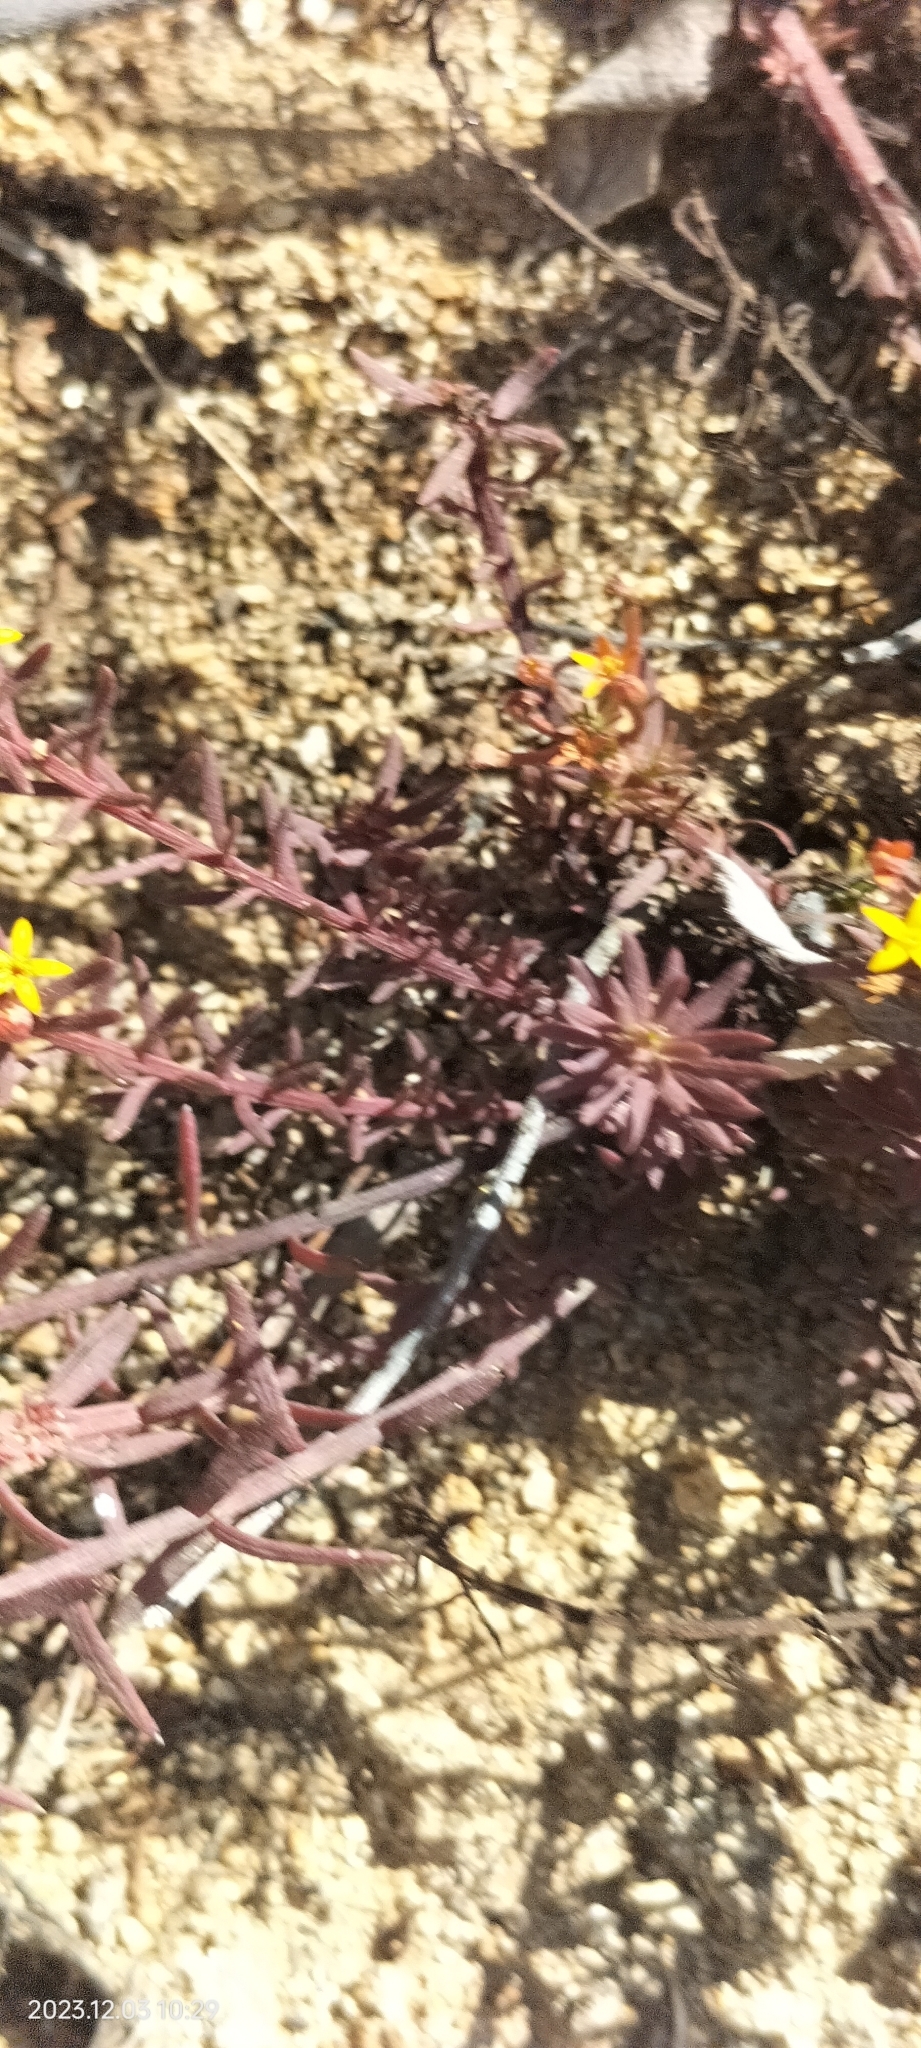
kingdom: Plantae
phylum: Tracheophyta
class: Magnoliopsida
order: Santalales
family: Schoepfiaceae
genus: Quinchamalium
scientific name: Quinchamalium chilense
